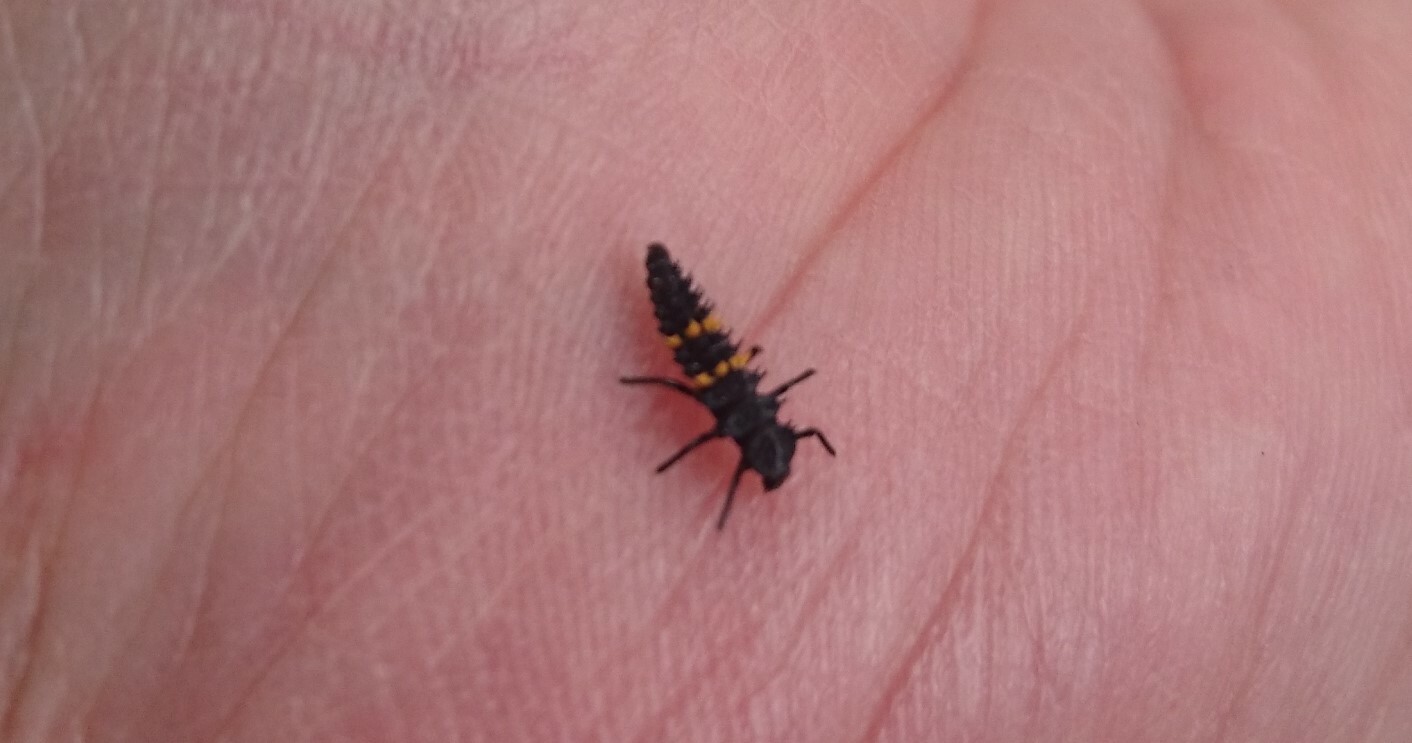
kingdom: Animalia
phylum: Arthropoda
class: Insecta
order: Coleoptera
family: Coccinellidae
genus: Harmonia
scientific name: Harmonia conformis
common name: Common spotted ladybird beetle
